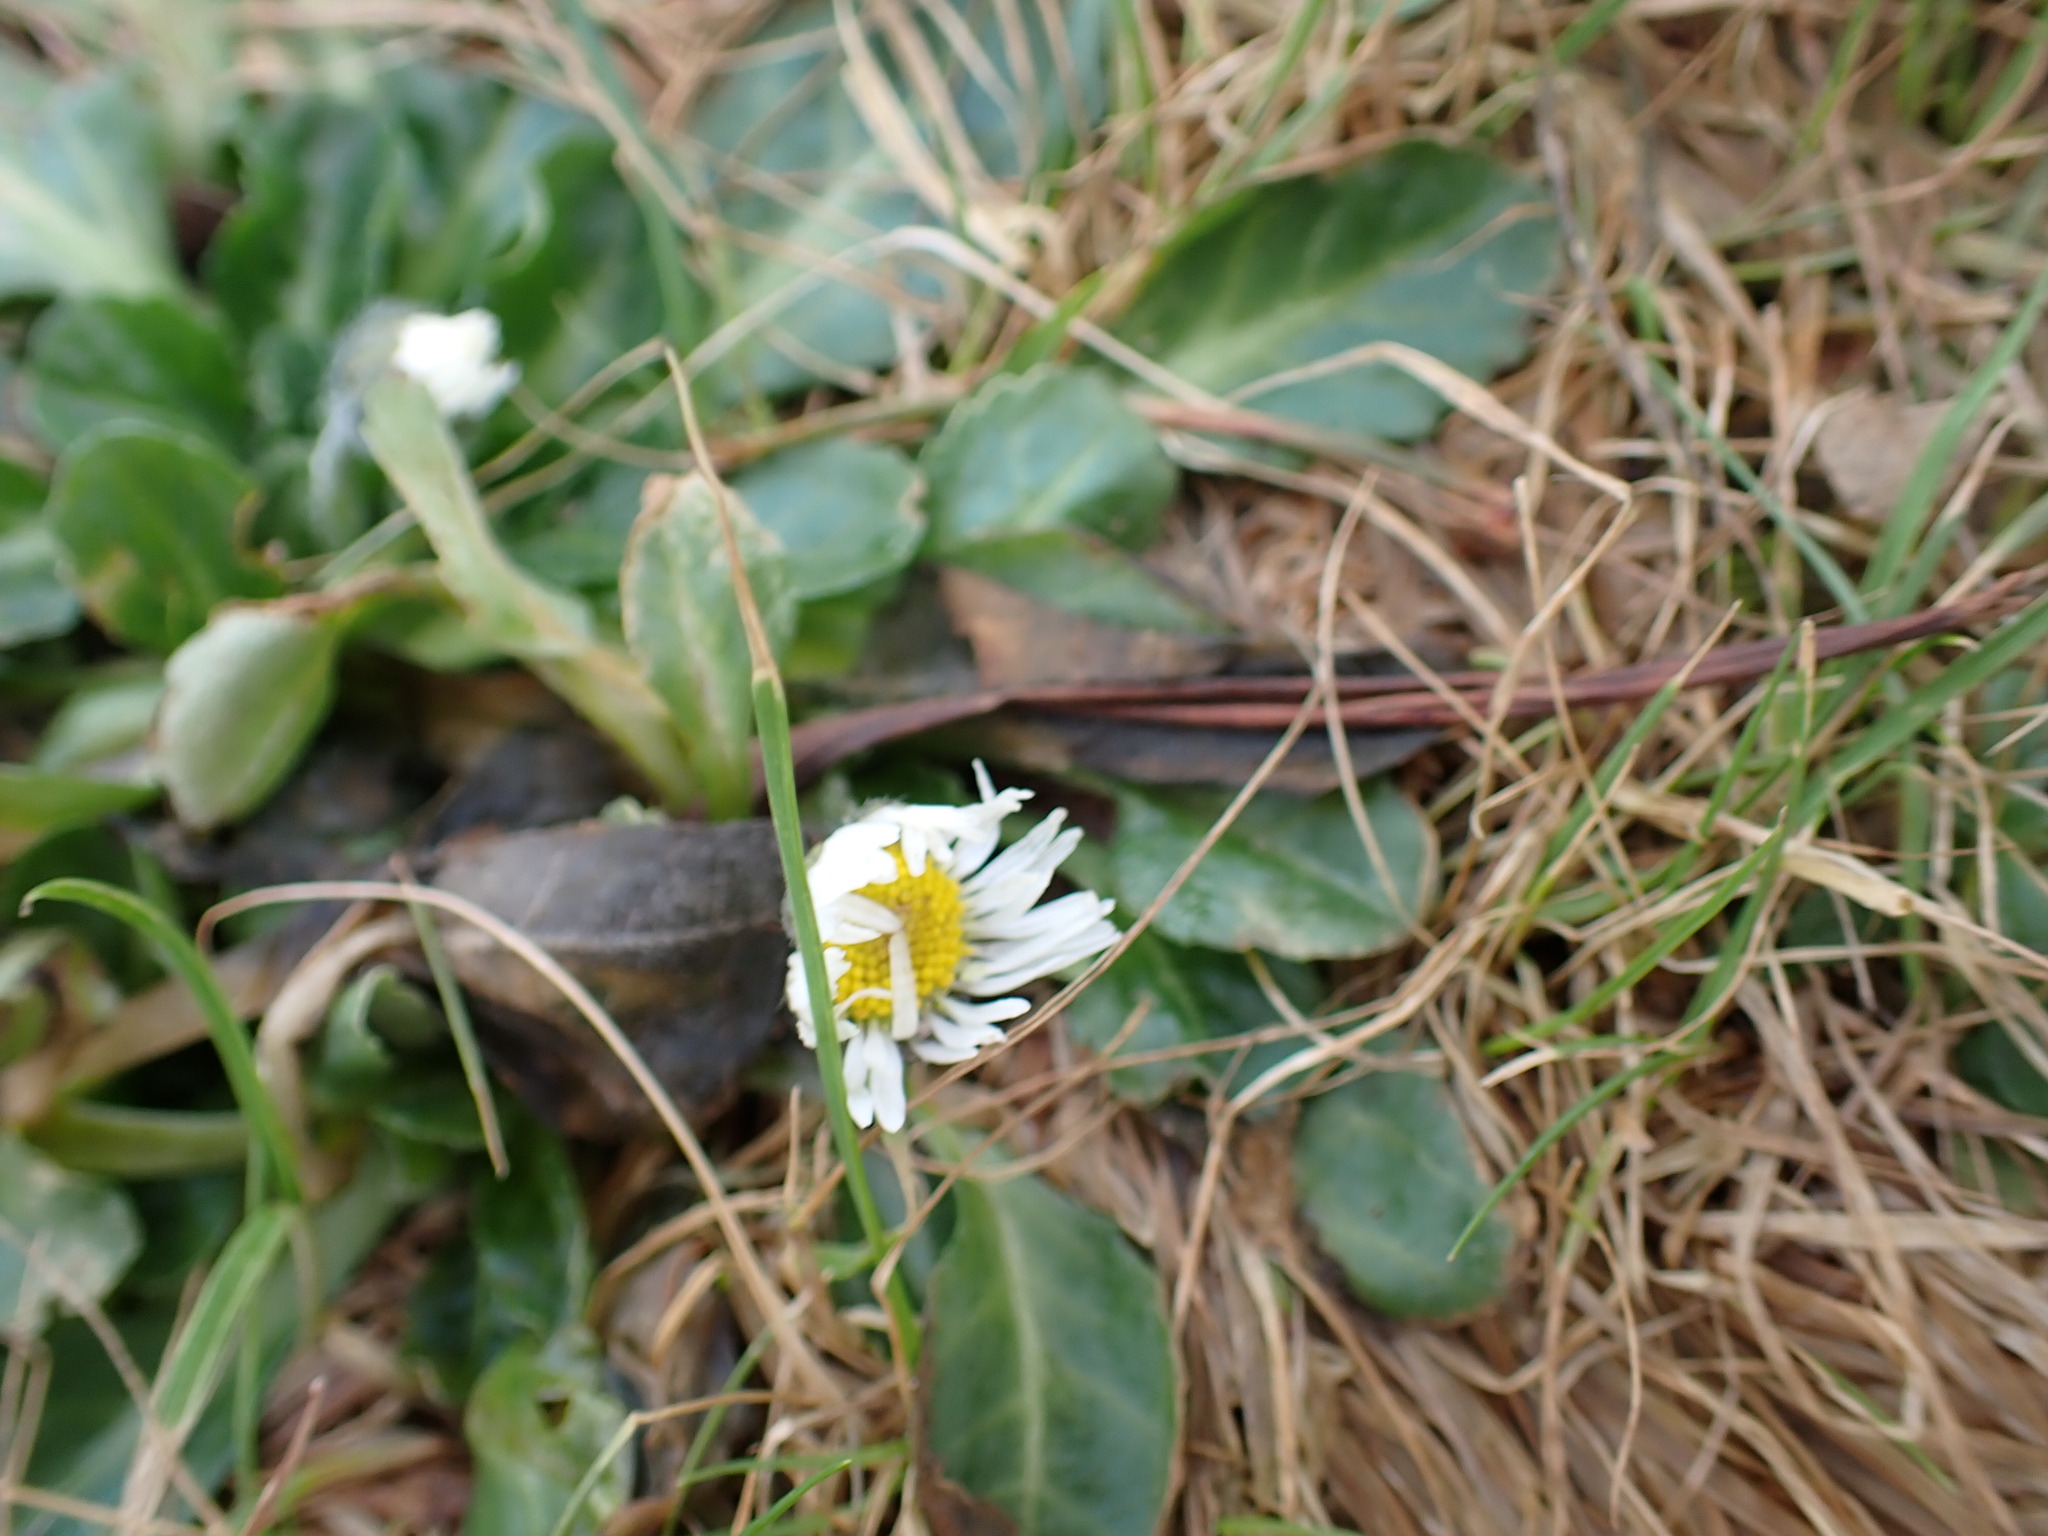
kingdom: Plantae
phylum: Tracheophyta
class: Magnoliopsida
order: Asterales
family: Asteraceae
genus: Bellis
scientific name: Bellis perennis
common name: Lawndaisy
